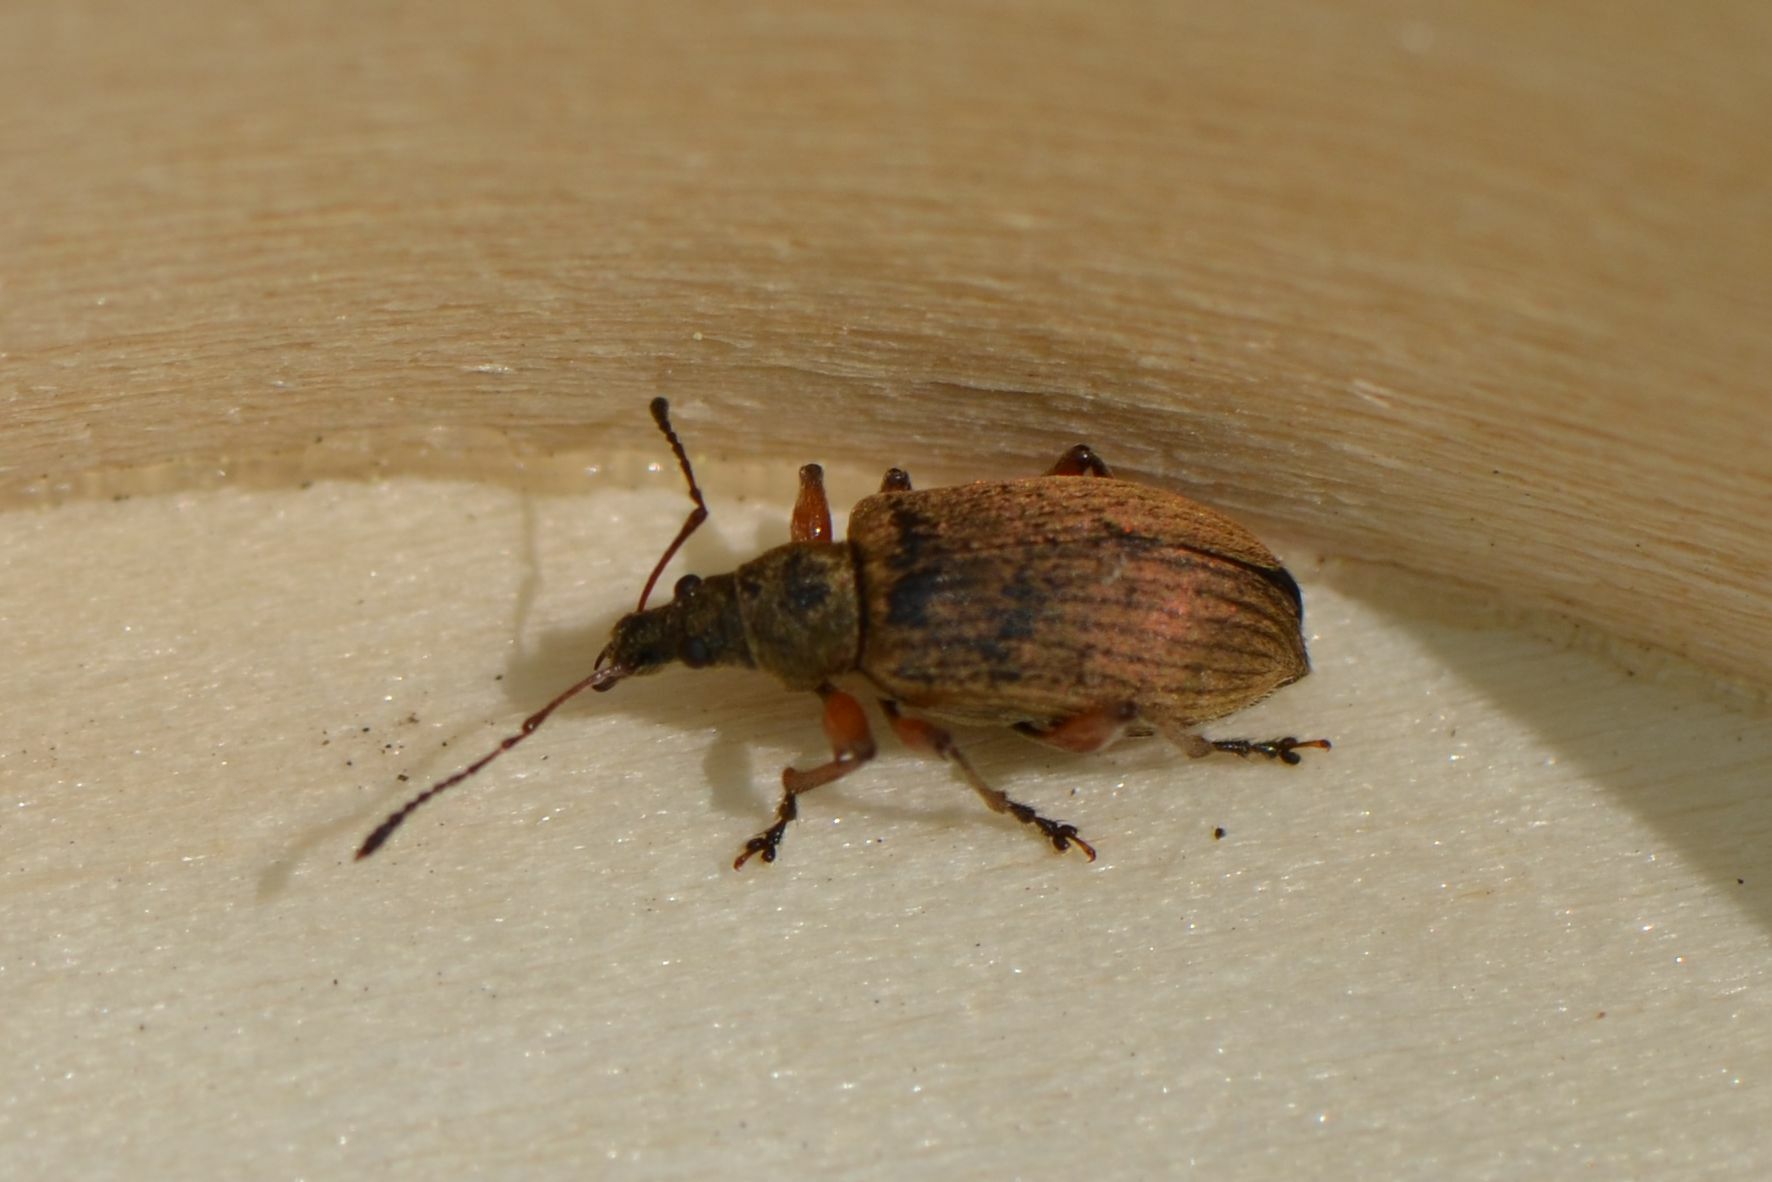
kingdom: Animalia
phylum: Arthropoda
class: Insecta
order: Coleoptera
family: Curculionidae
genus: Phyllobius
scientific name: Phyllobius glaucus
